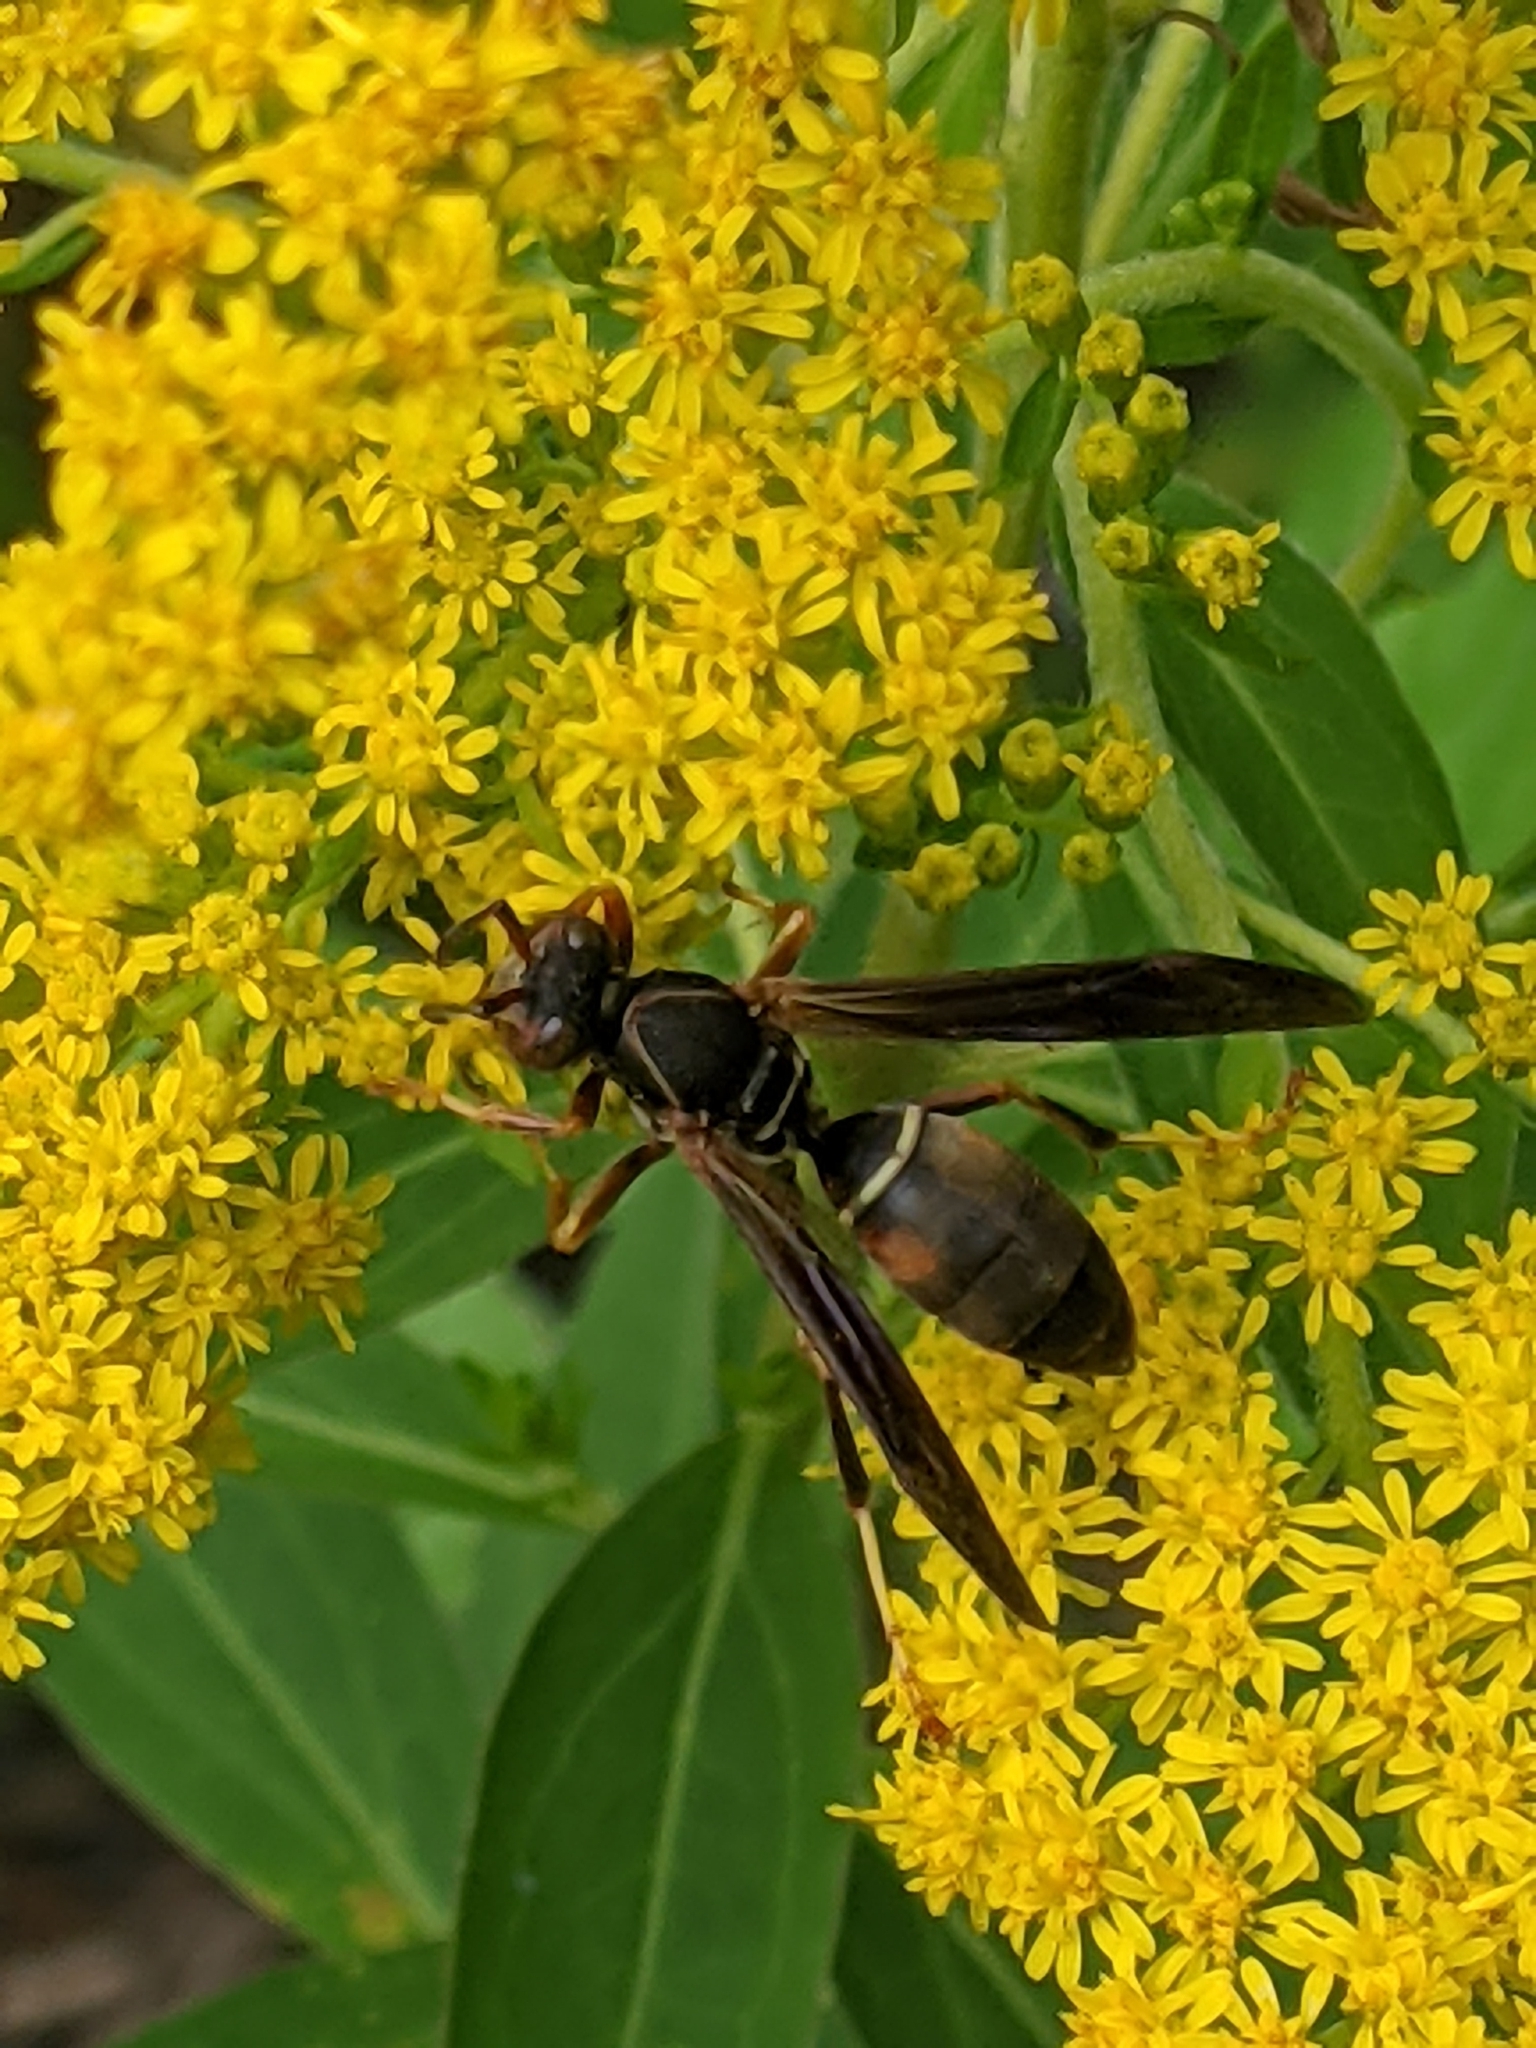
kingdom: Animalia
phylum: Arthropoda
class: Insecta
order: Hymenoptera
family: Eumenidae
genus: Polistes
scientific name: Polistes fuscatus
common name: Dark paper wasp
